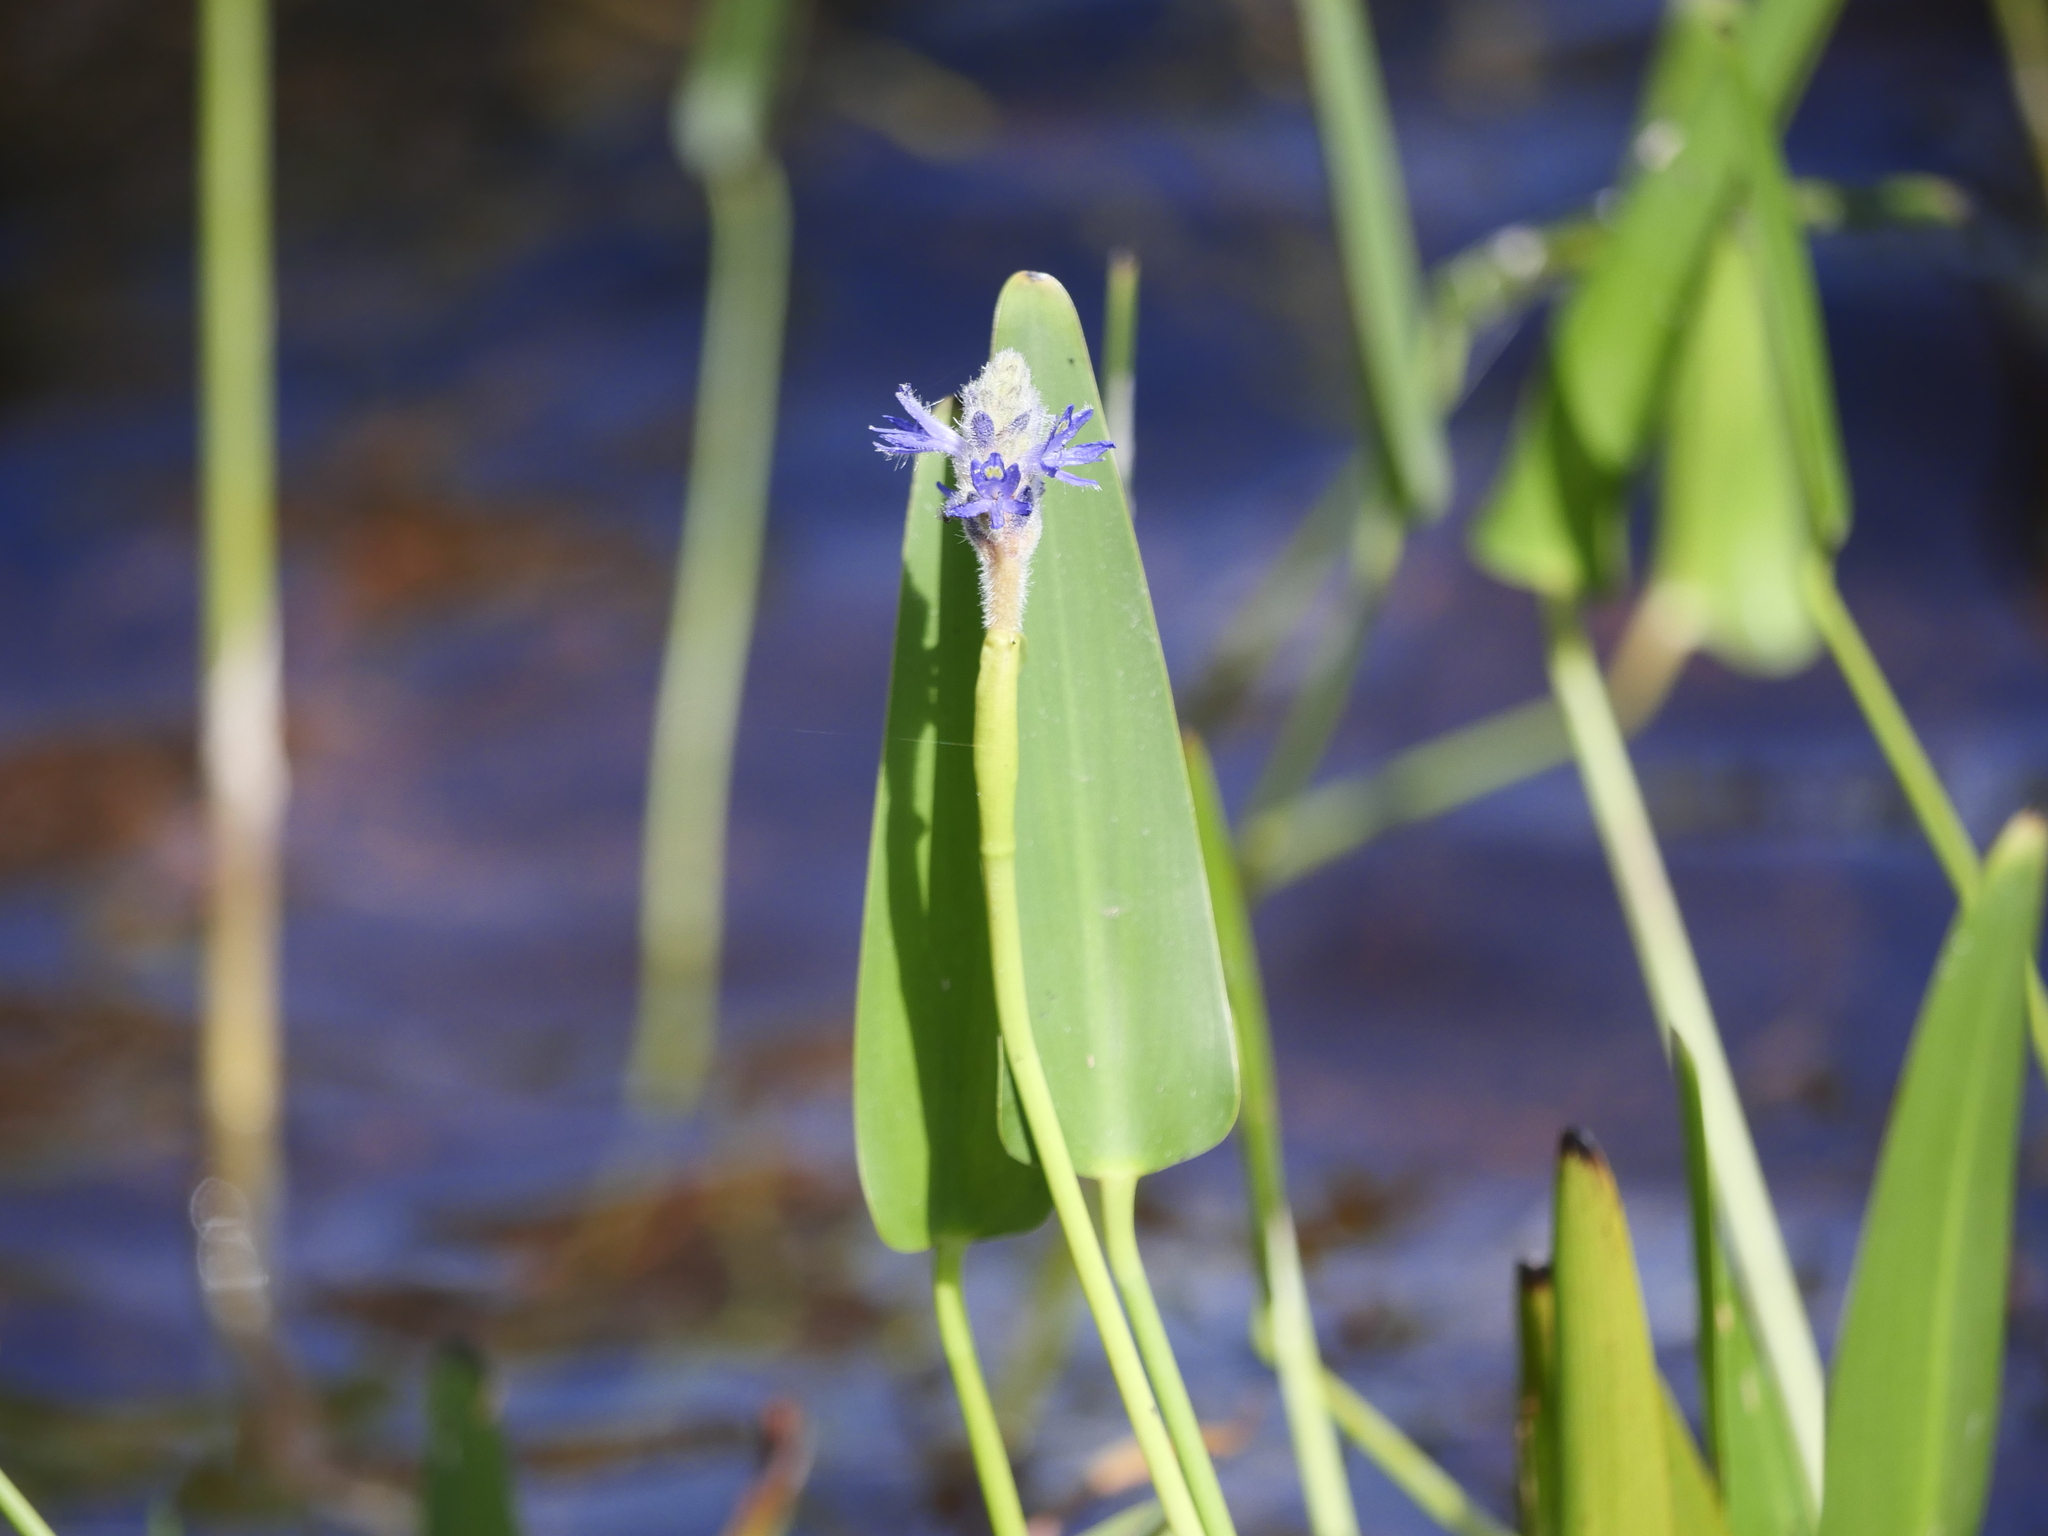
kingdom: Plantae
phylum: Tracheophyta
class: Liliopsida
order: Commelinales
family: Pontederiaceae
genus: Pontederia
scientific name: Pontederia cordata
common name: Pickerelweed
